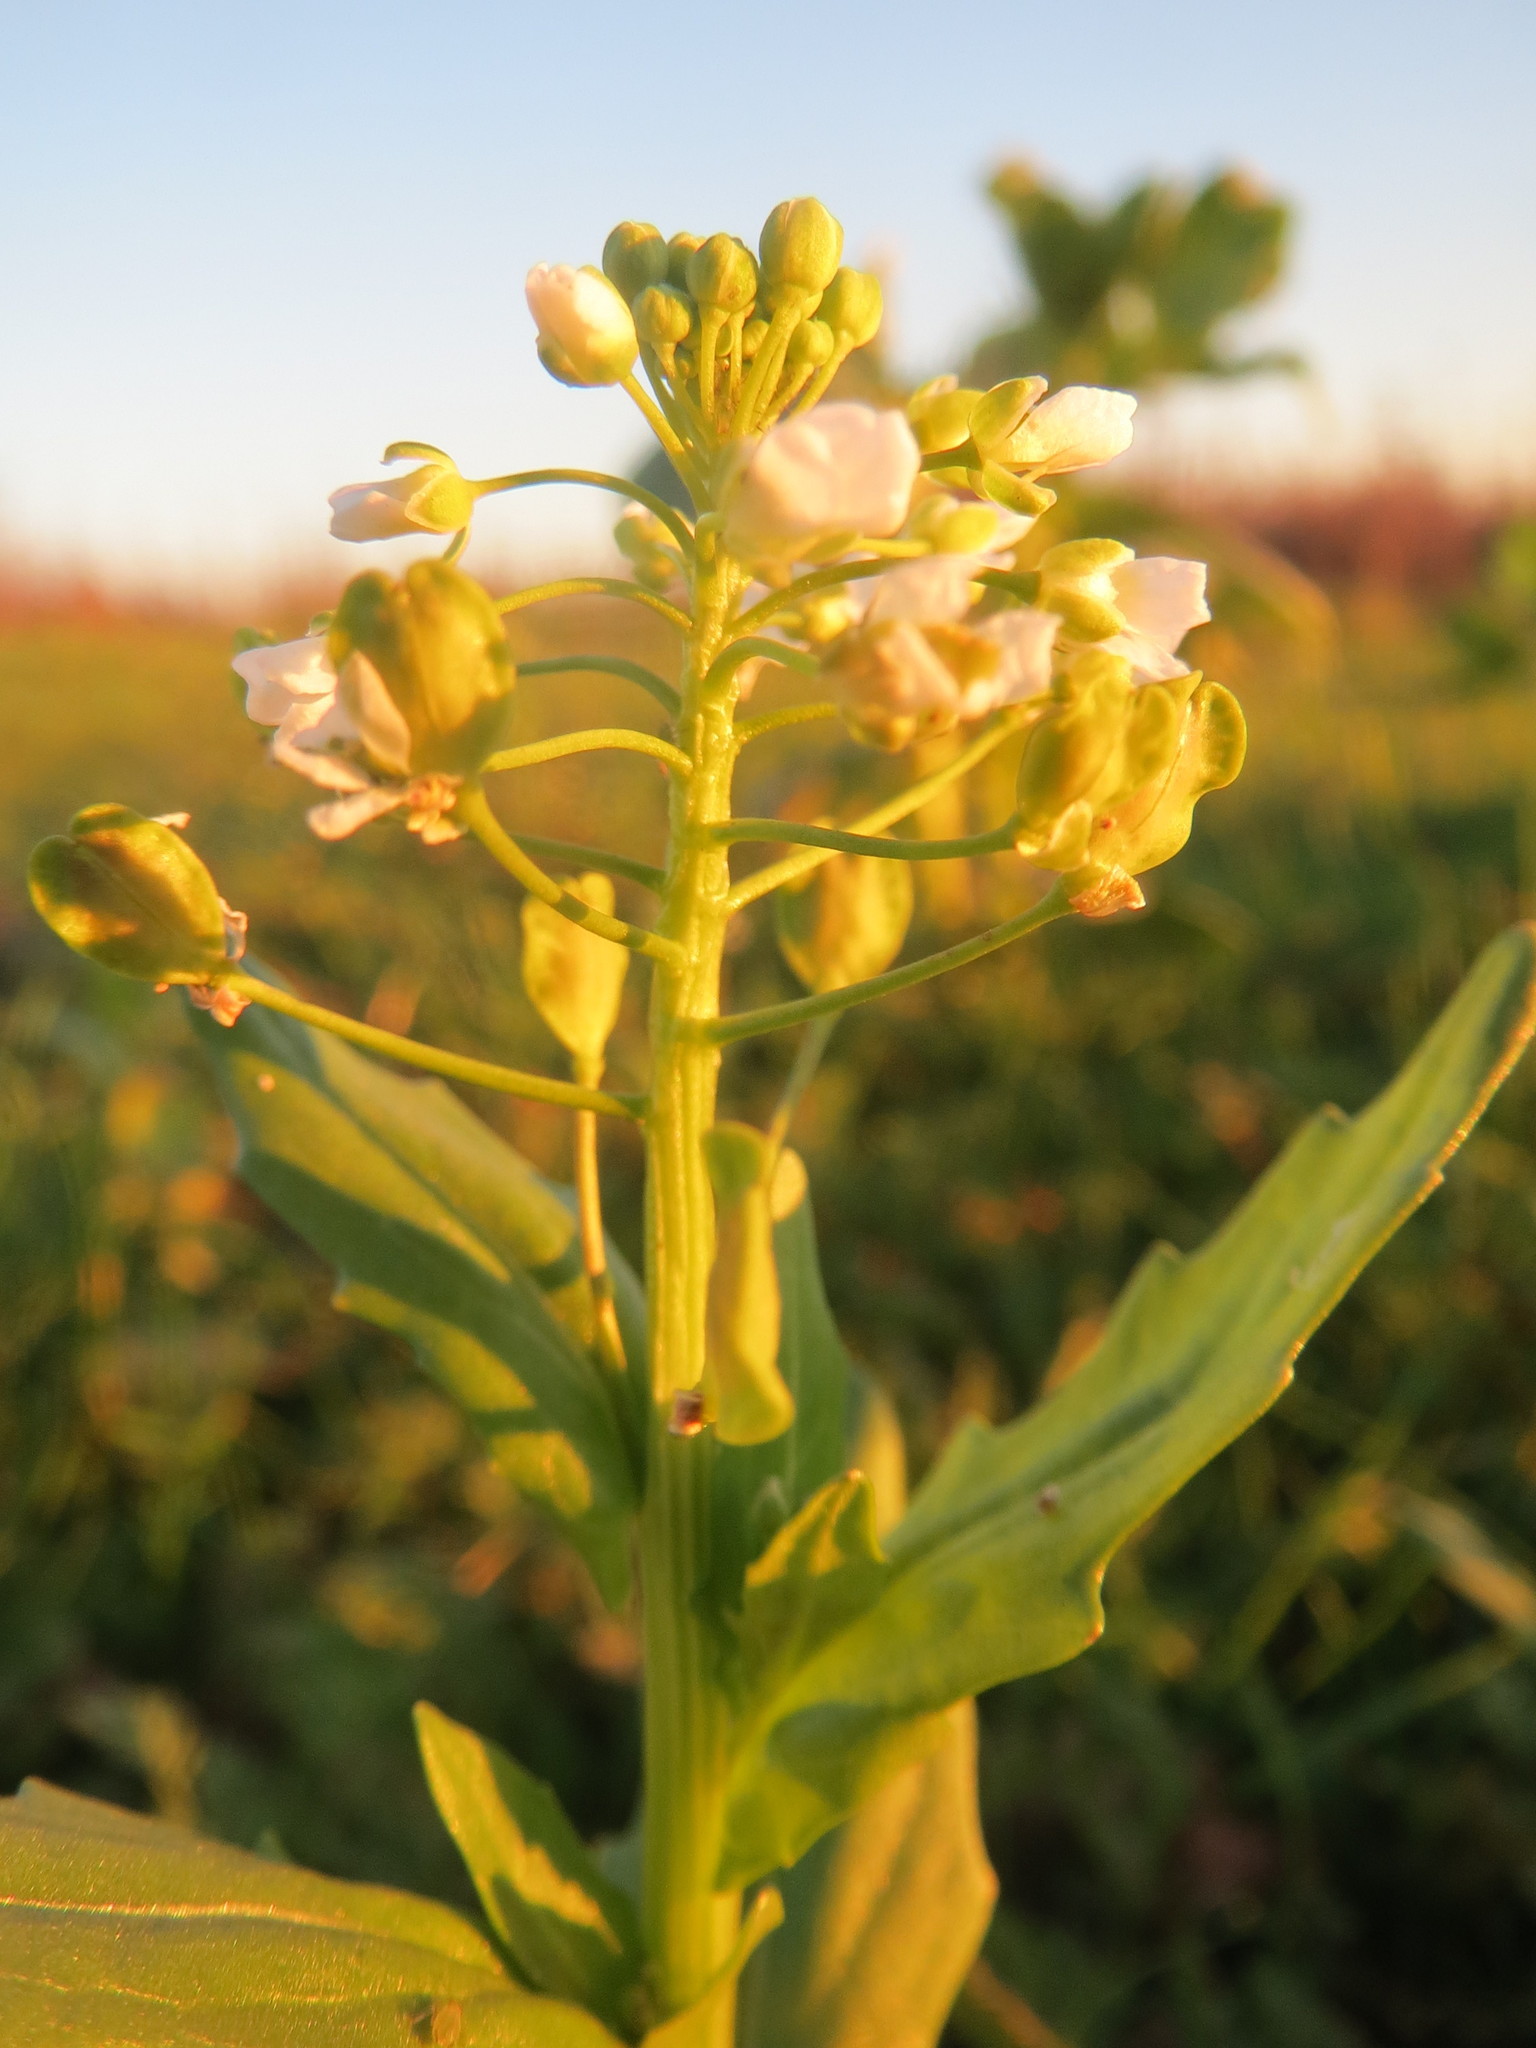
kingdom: Plantae
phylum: Tracheophyta
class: Magnoliopsida
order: Brassicales
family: Brassicaceae
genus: Thlaspi
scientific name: Thlaspi arvense
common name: Field pennycress
